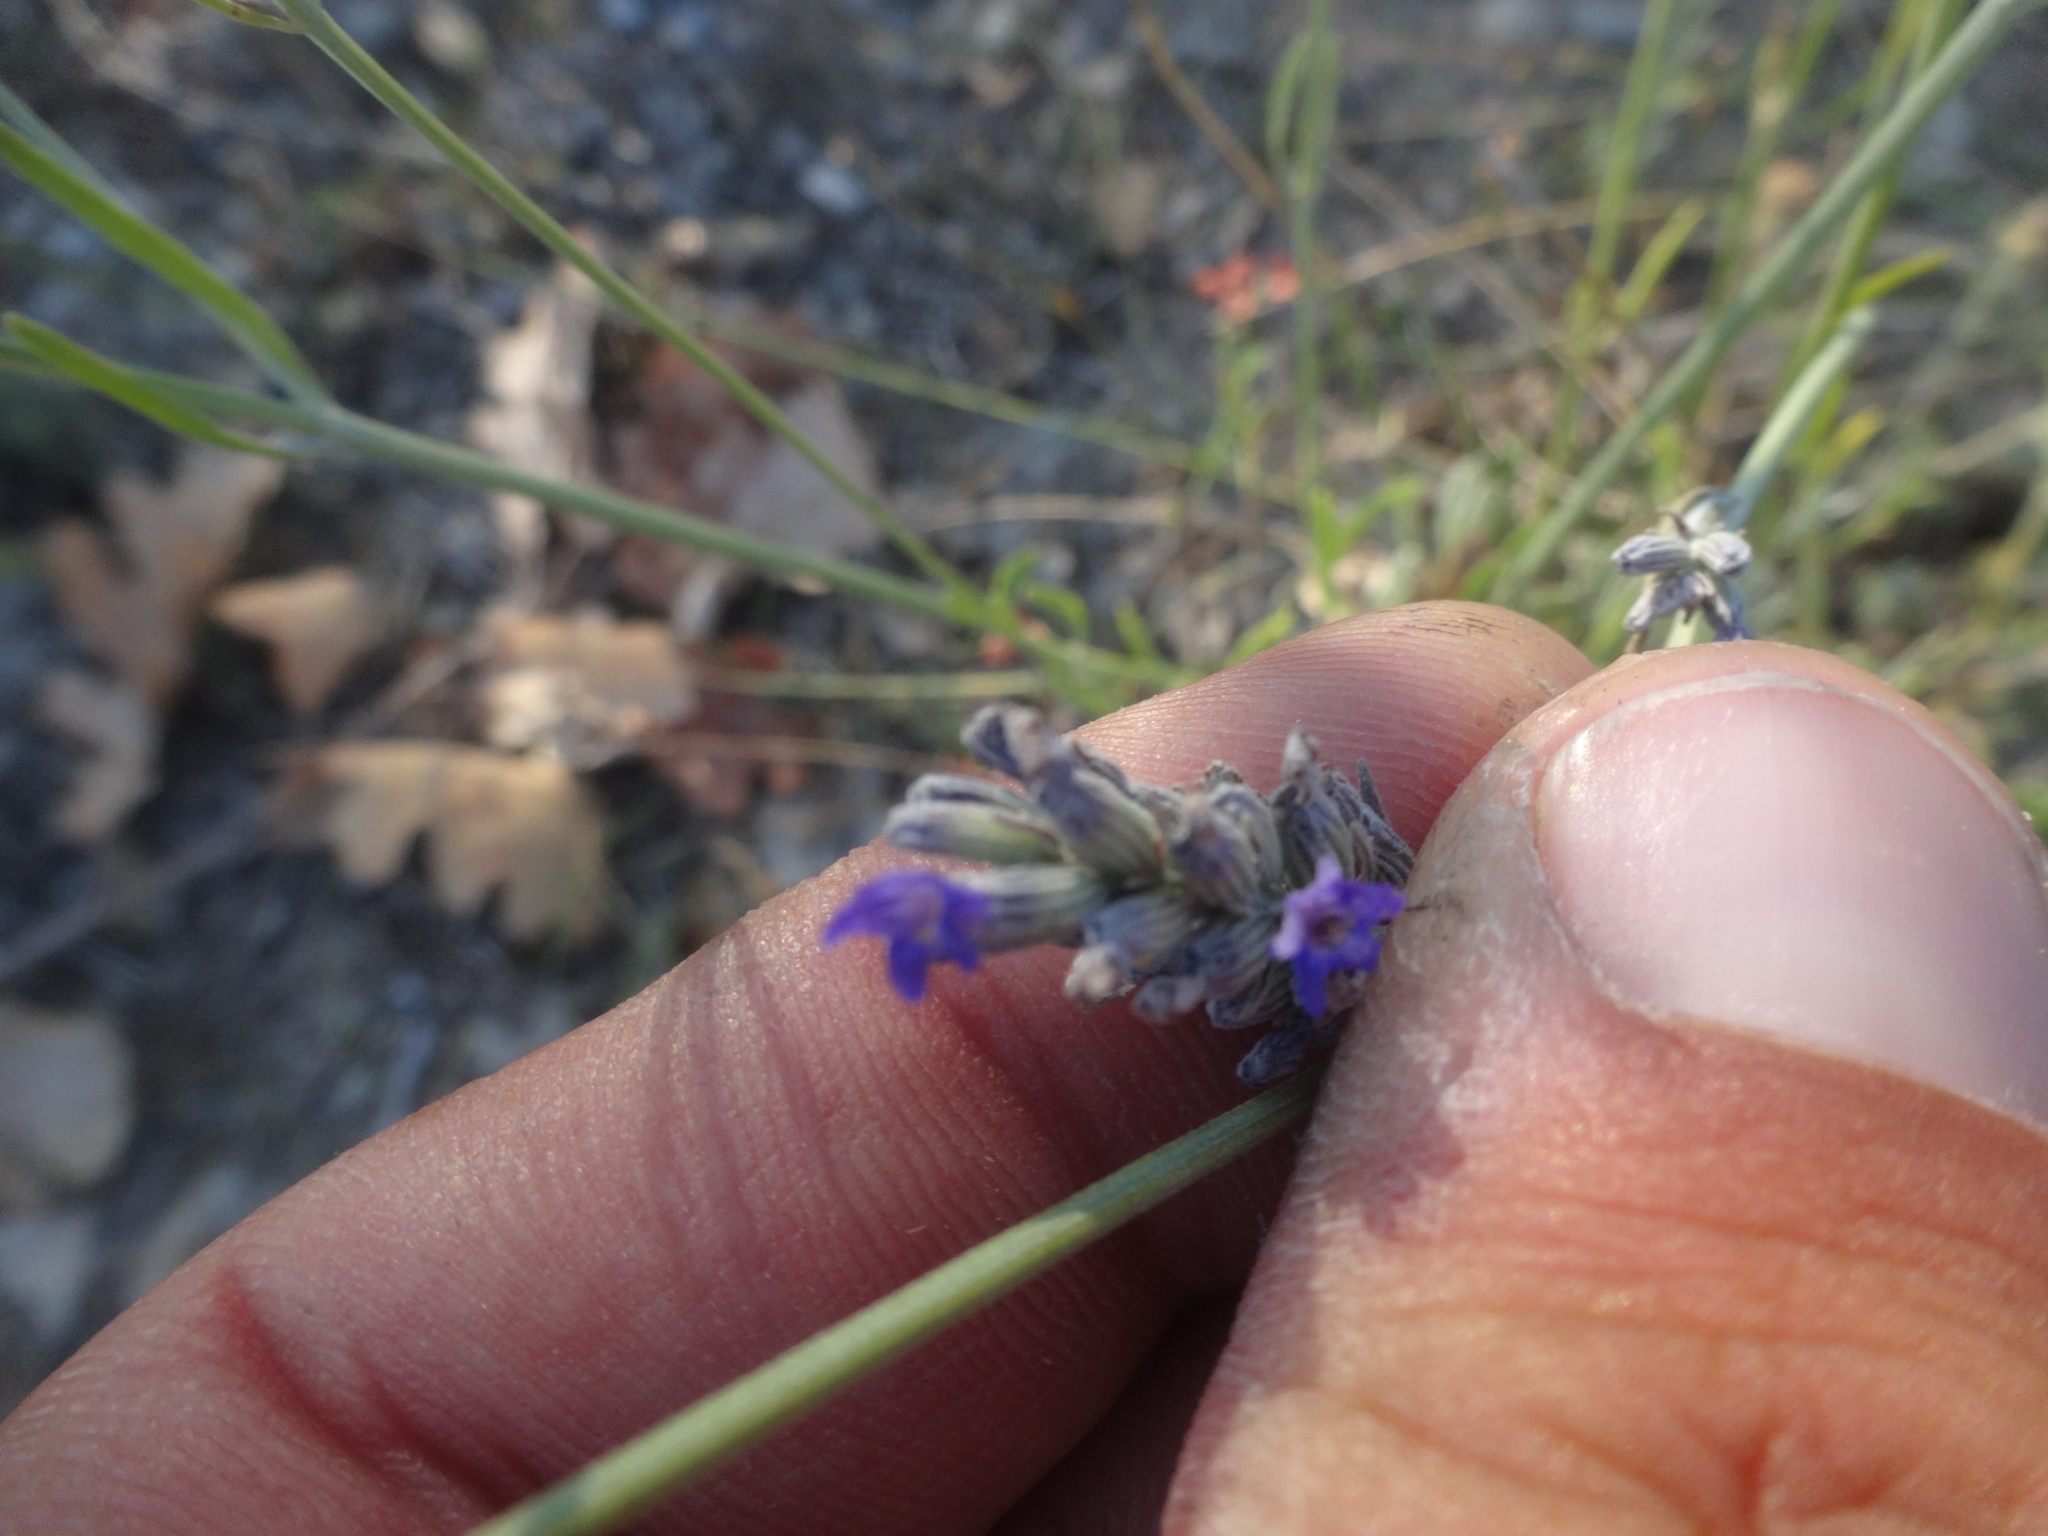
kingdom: Plantae
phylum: Tracheophyta
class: Magnoliopsida
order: Lamiales
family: Lamiaceae
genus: Lavandula
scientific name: Lavandula latifolia
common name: Spike lavendar
